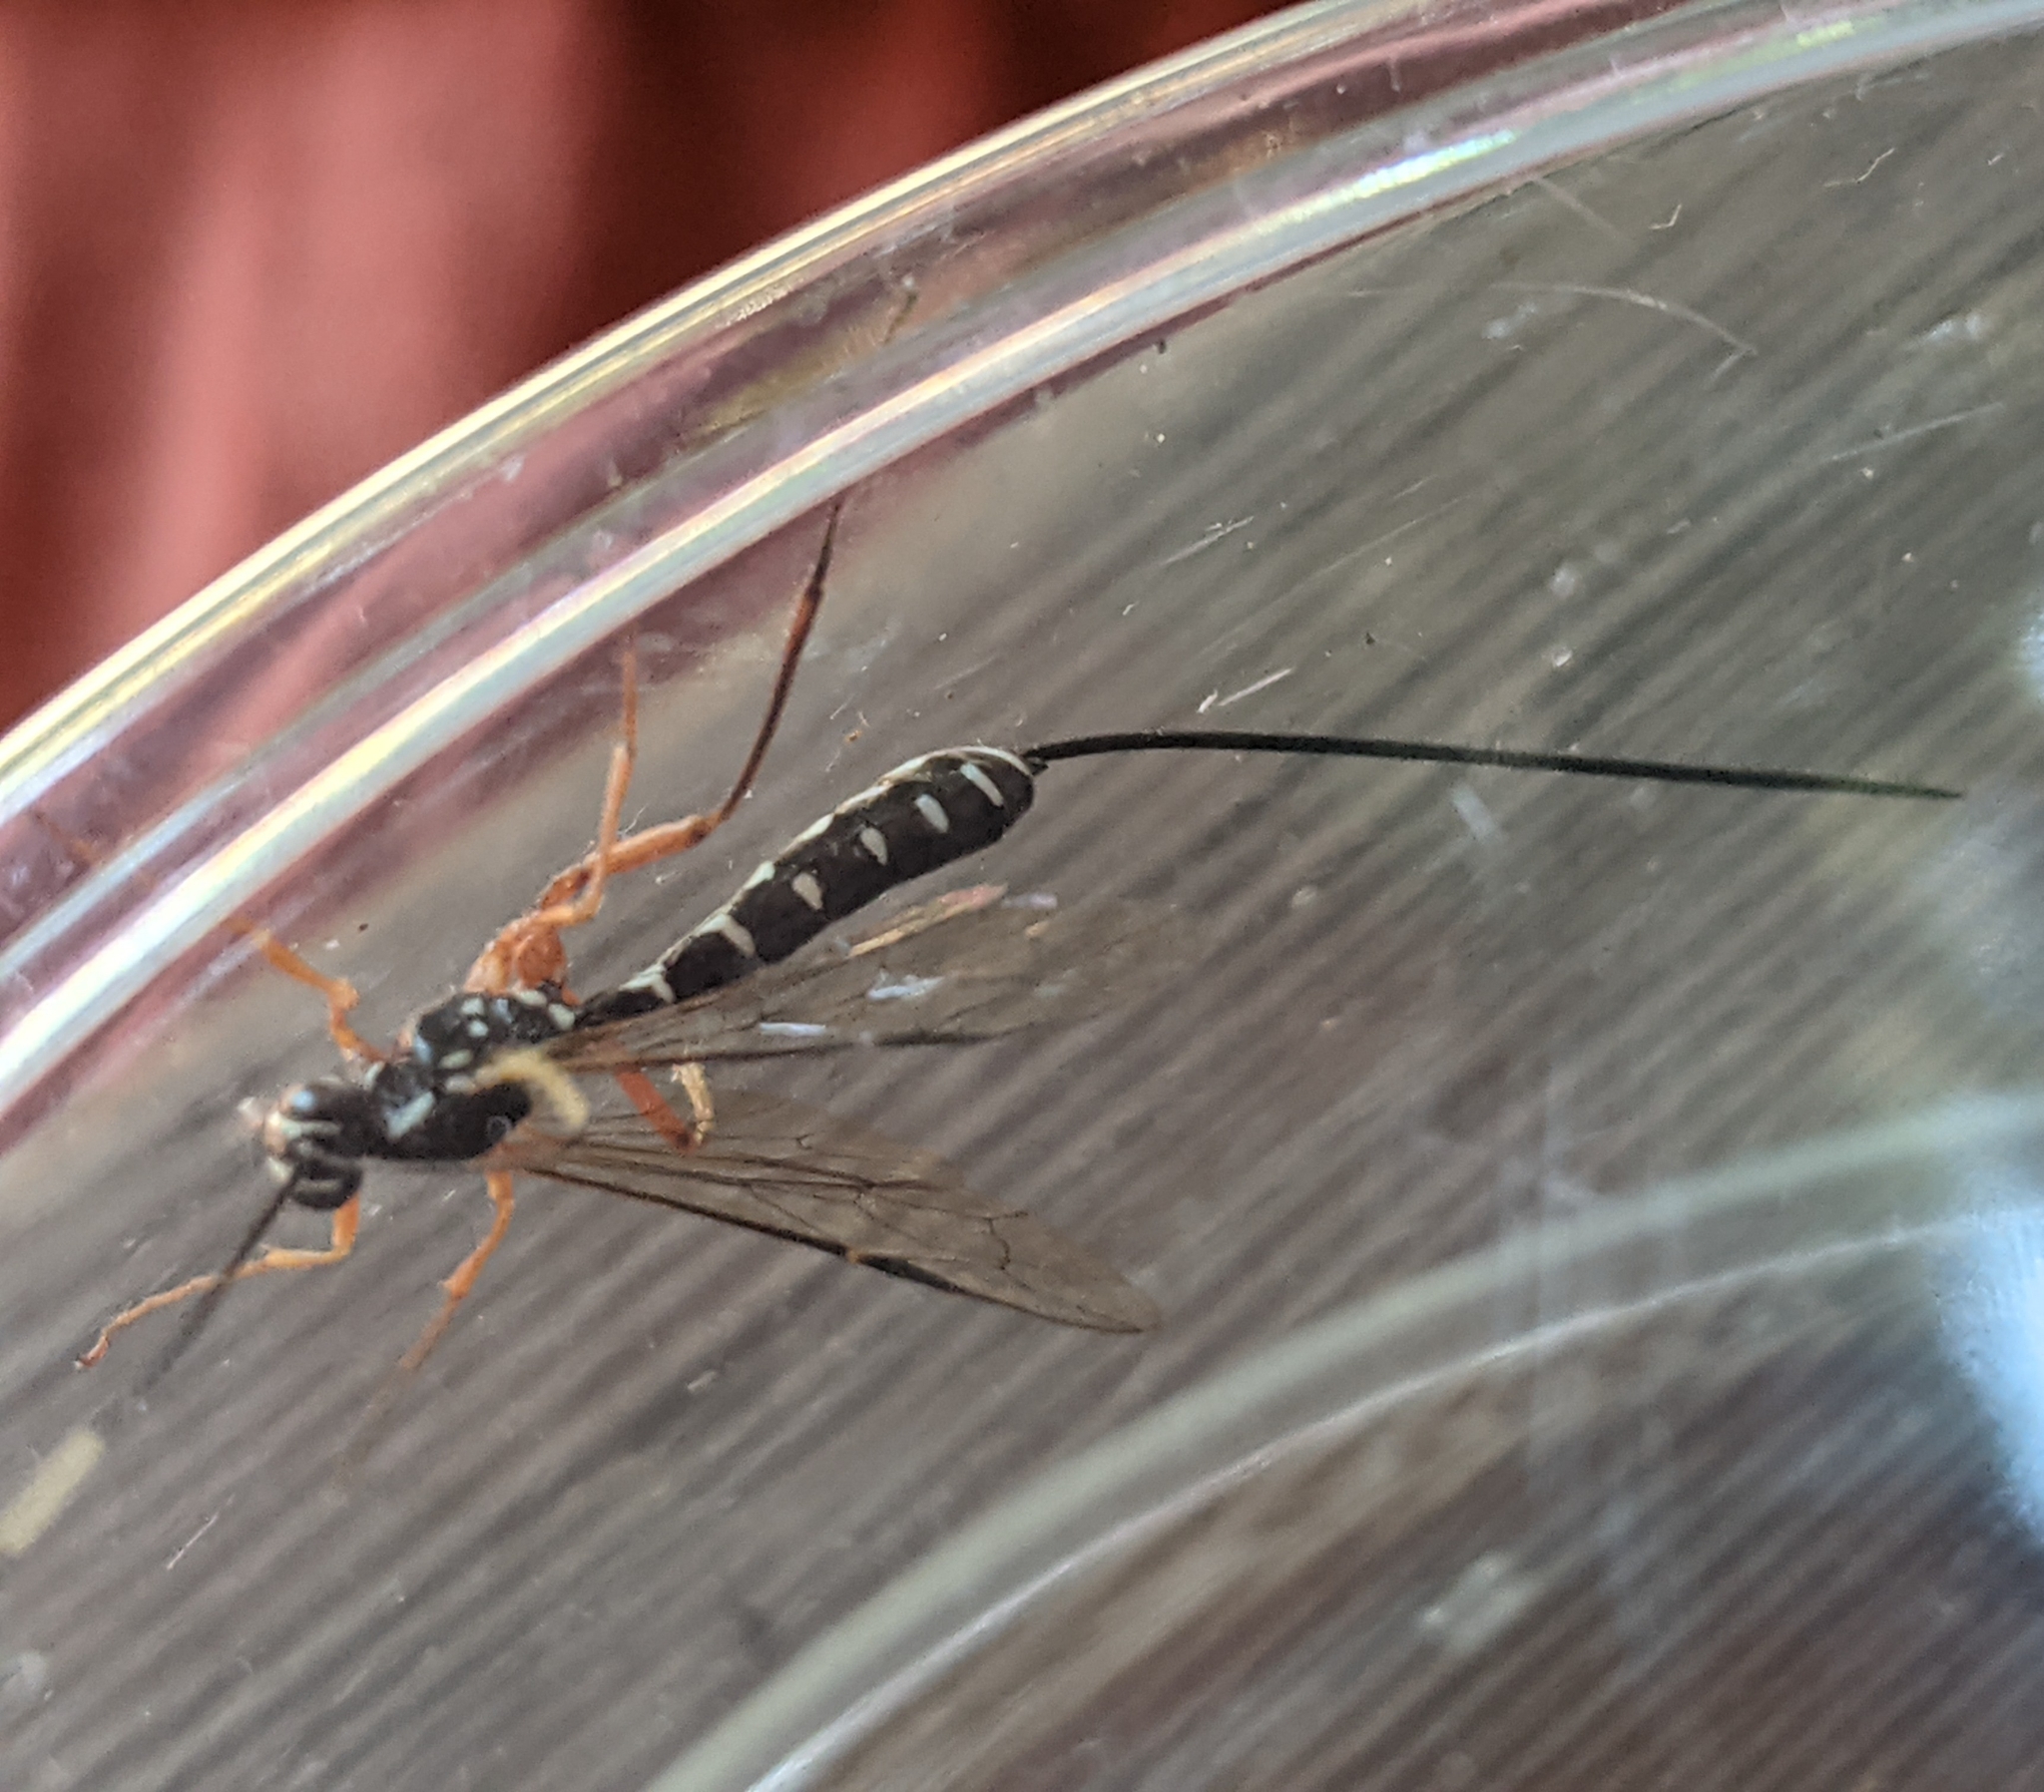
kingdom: Animalia
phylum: Arthropoda
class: Insecta
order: Hymenoptera
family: Ichneumonidae
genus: Rhyssa
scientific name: Rhyssa lineolata
